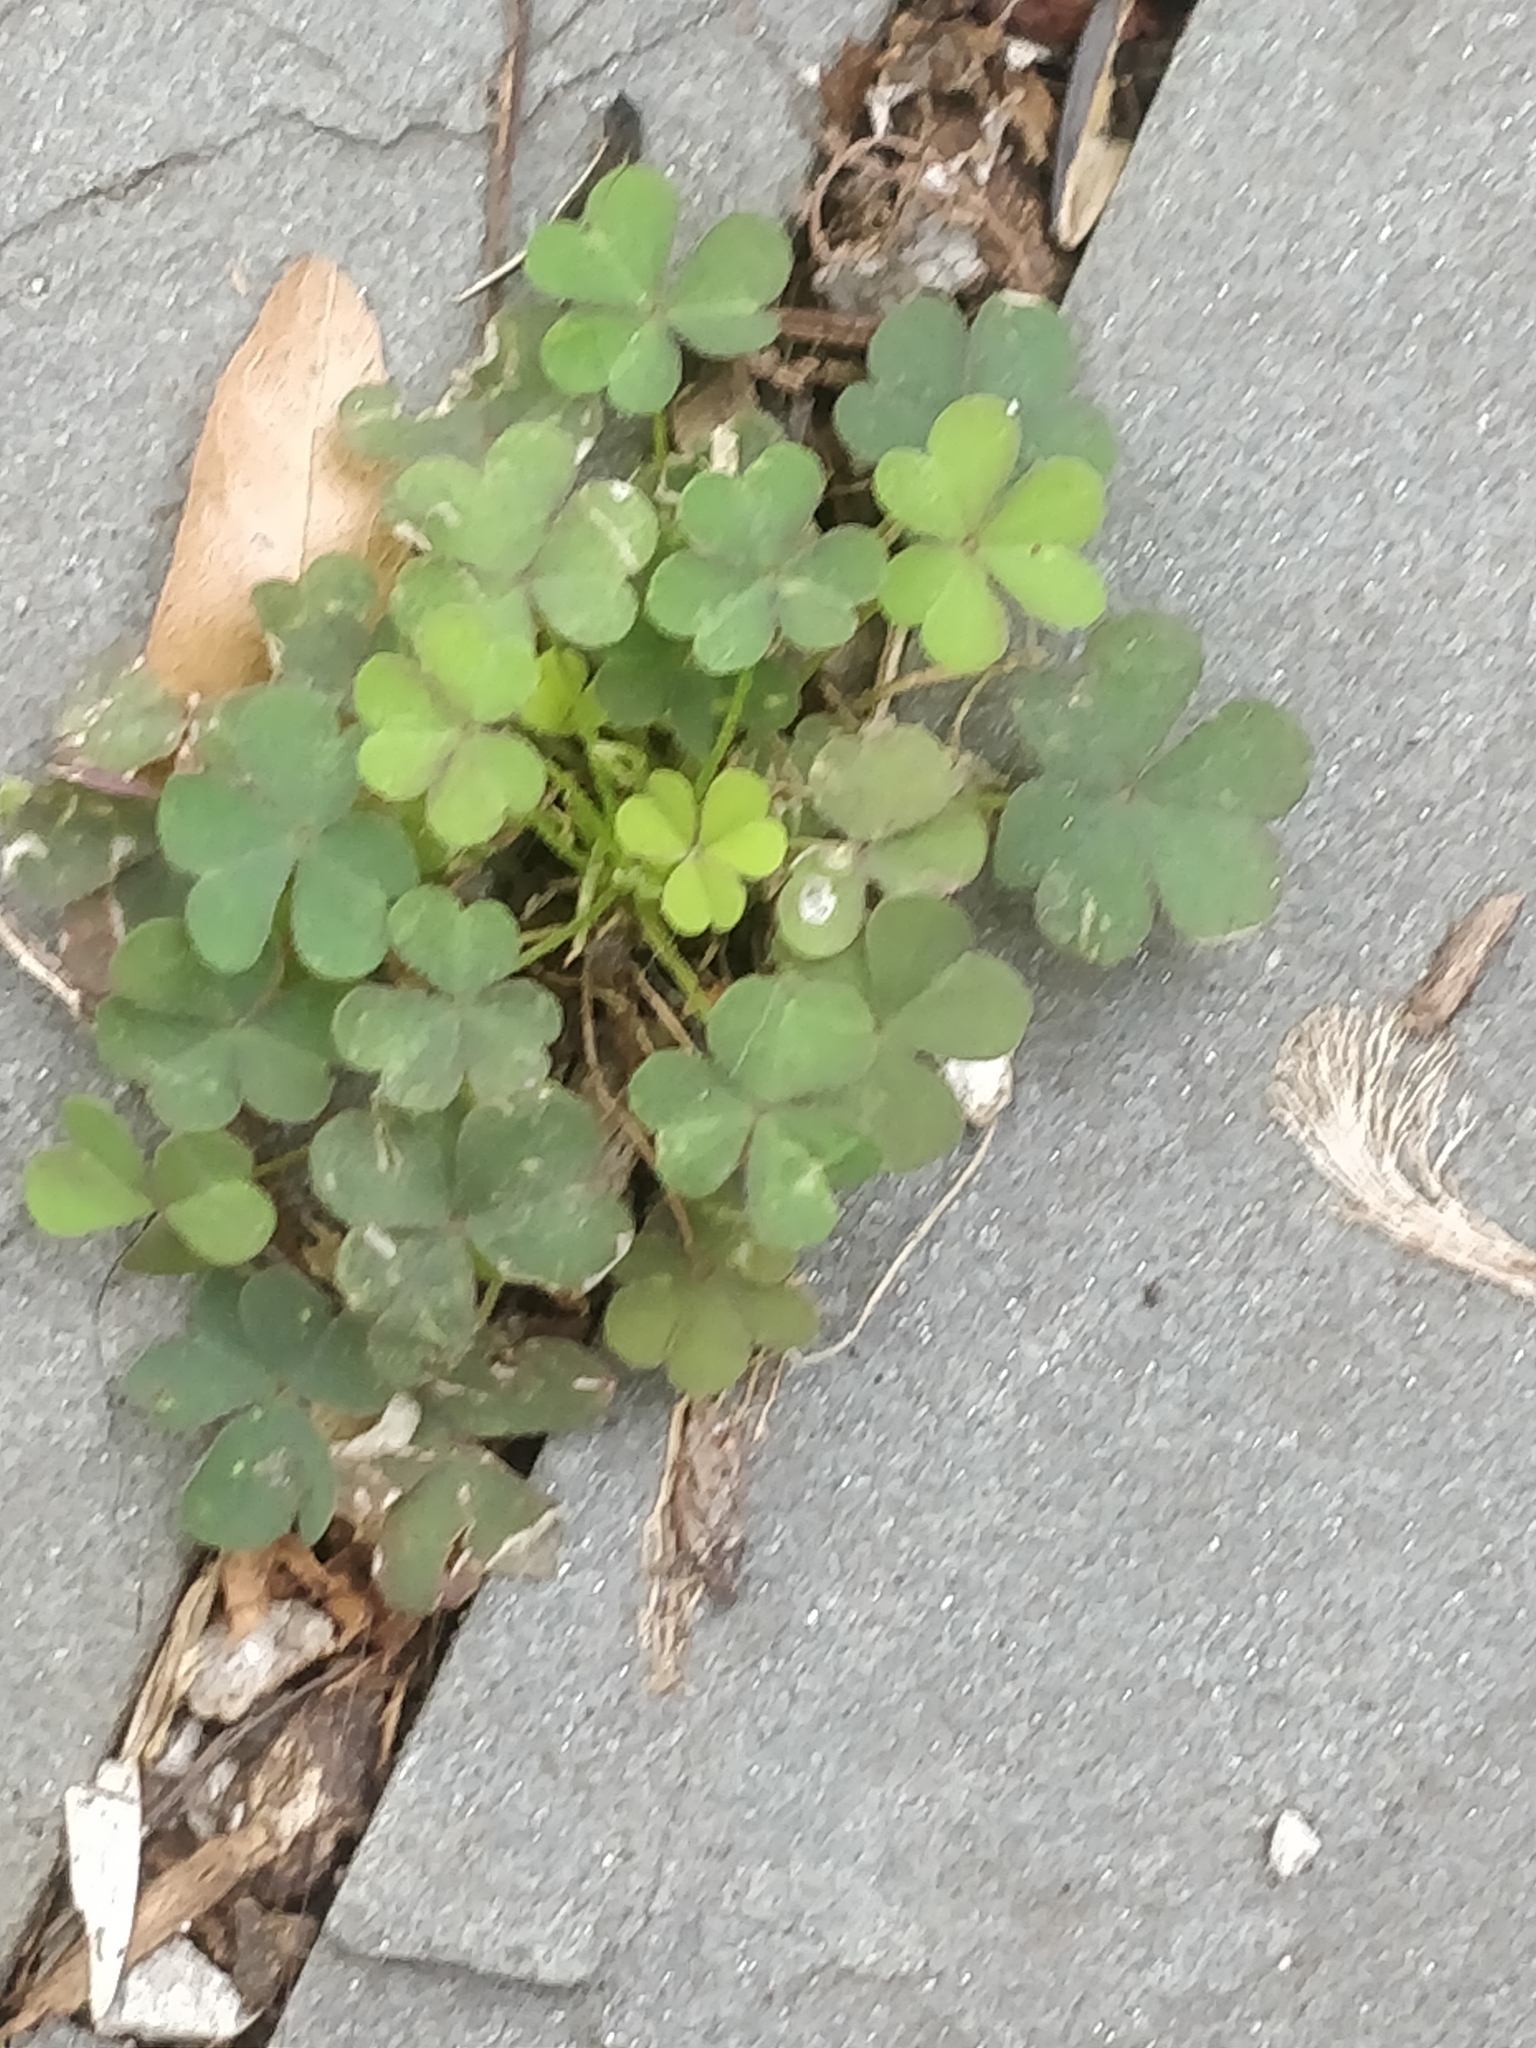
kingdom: Plantae
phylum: Tracheophyta
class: Magnoliopsida
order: Oxalidales
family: Oxalidaceae
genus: Oxalis
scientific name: Oxalis corniculata
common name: Procumbent yellow-sorrel
